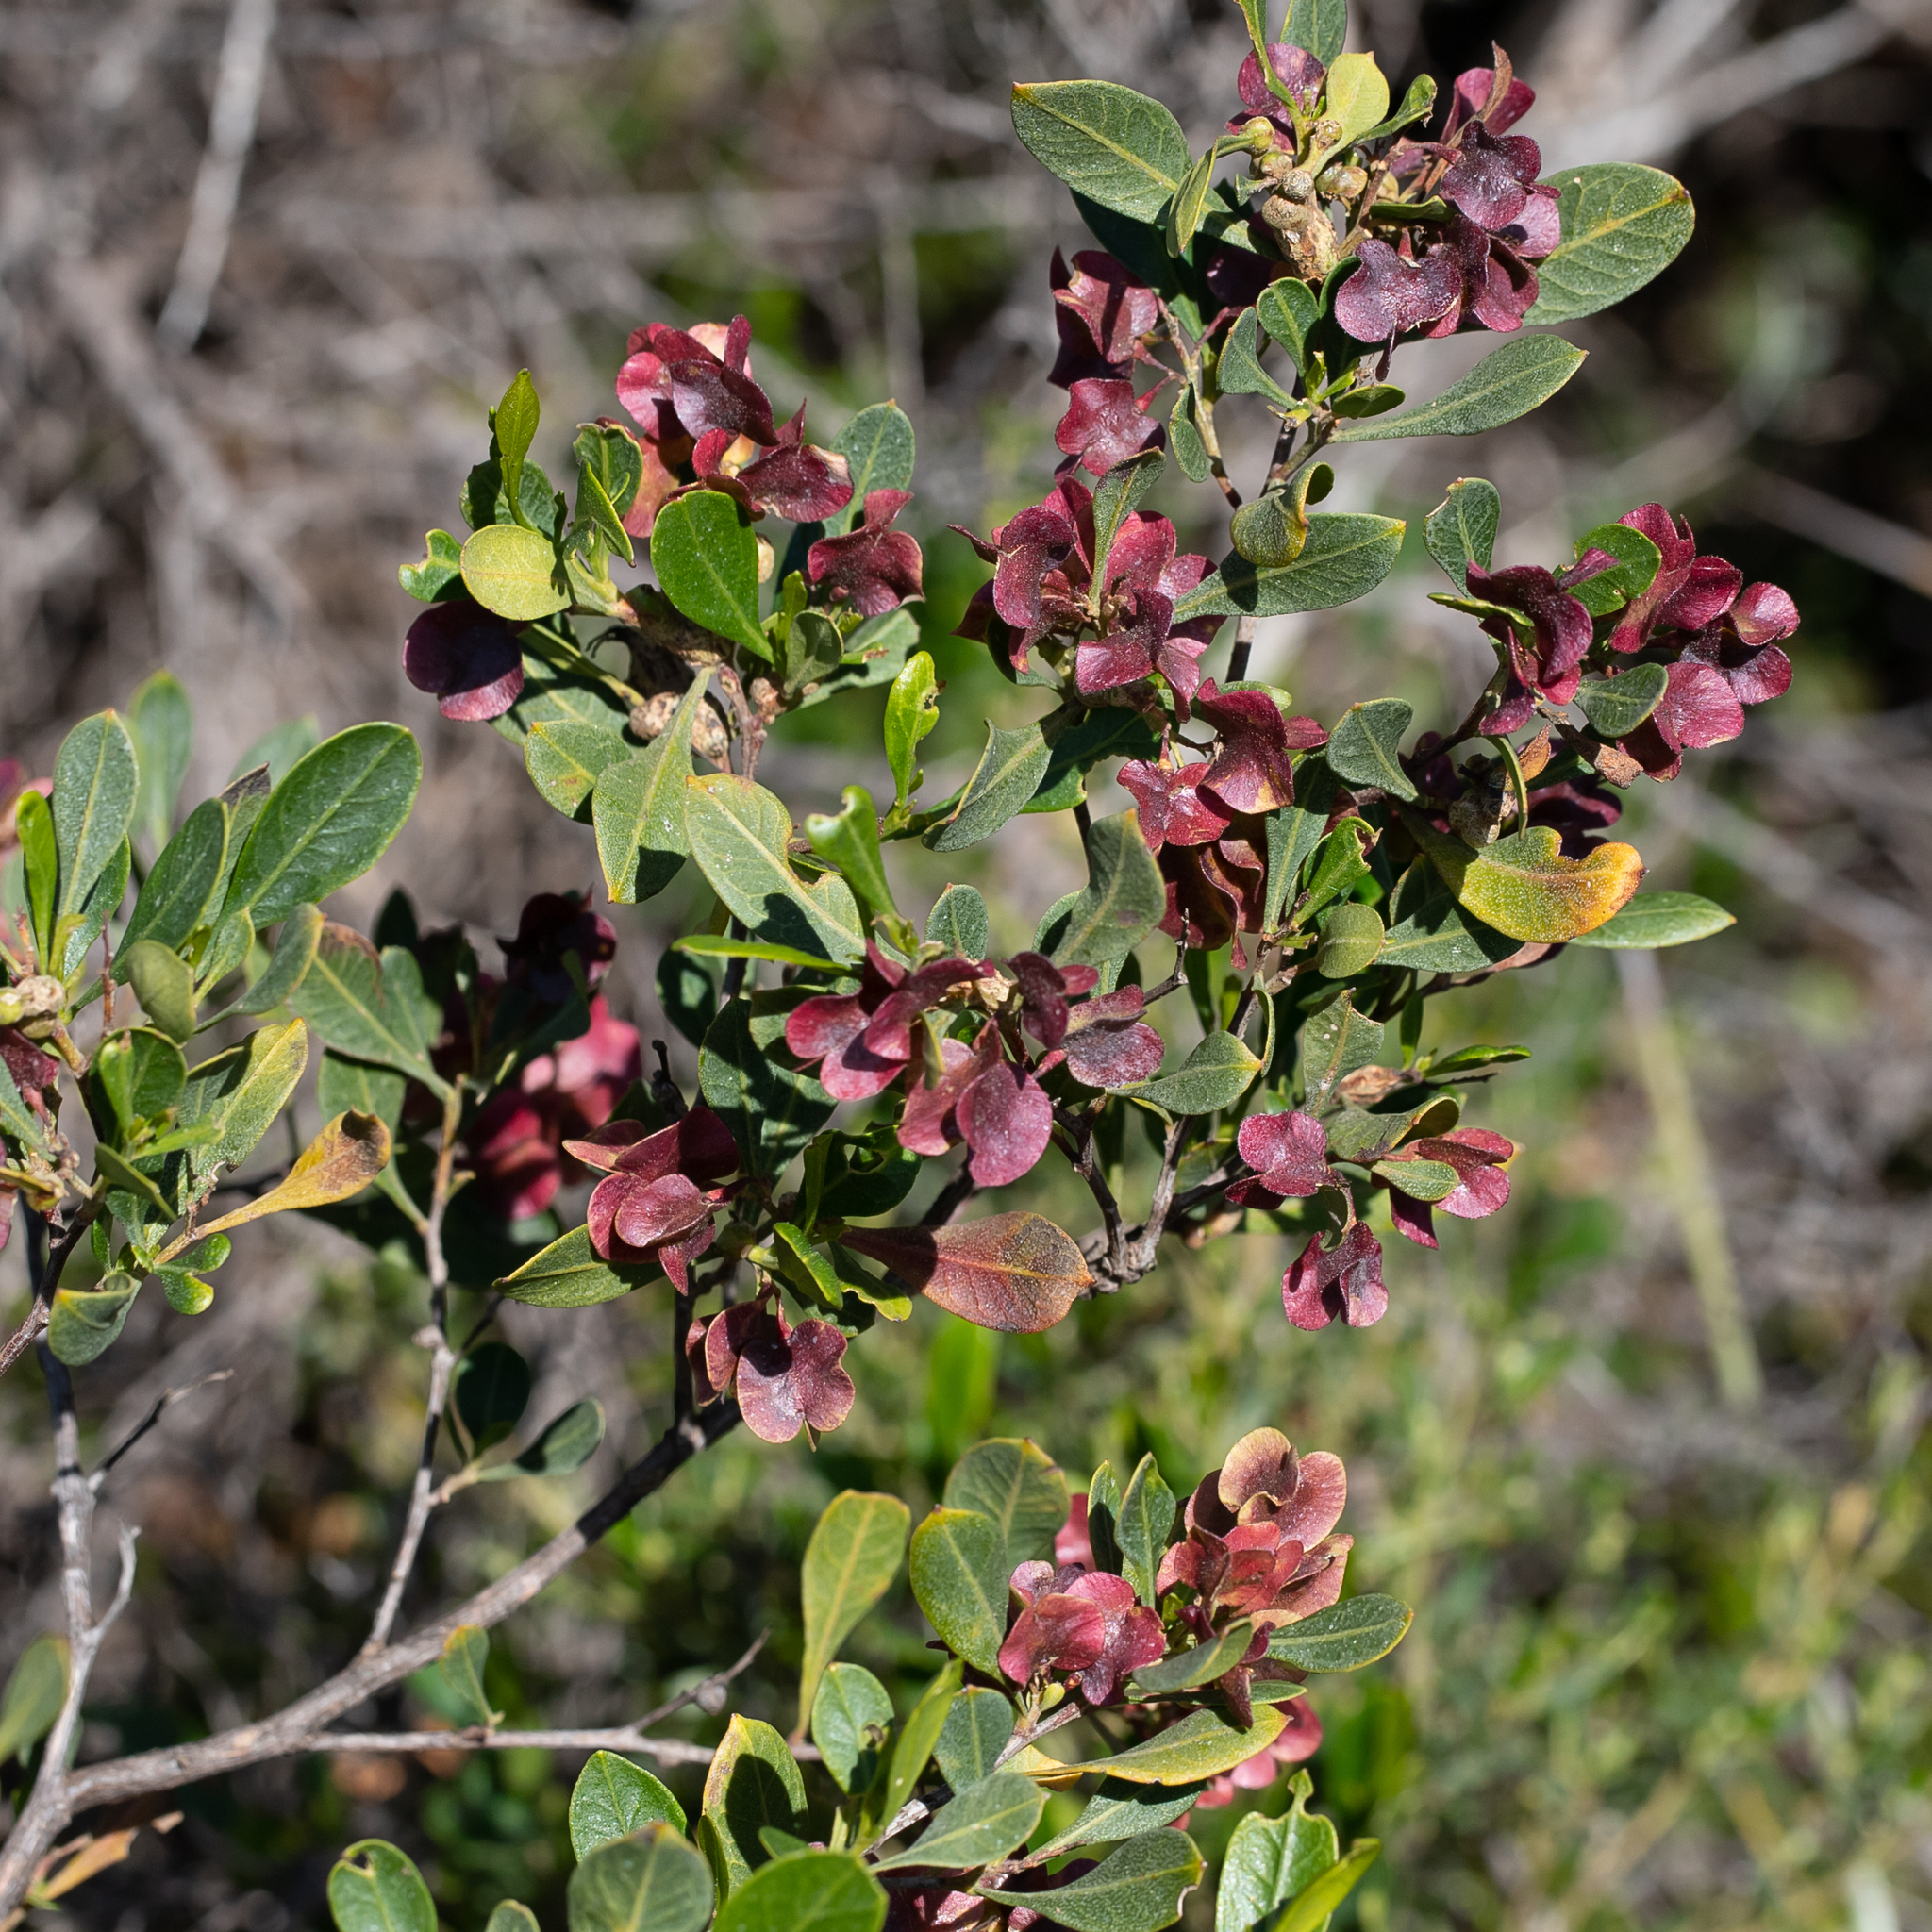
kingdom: Plantae
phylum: Tracheophyta
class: Magnoliopsida
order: Sapindales
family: Sapindaceae
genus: Dodonaea
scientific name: Dodonaea viscosa
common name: Hopbush
